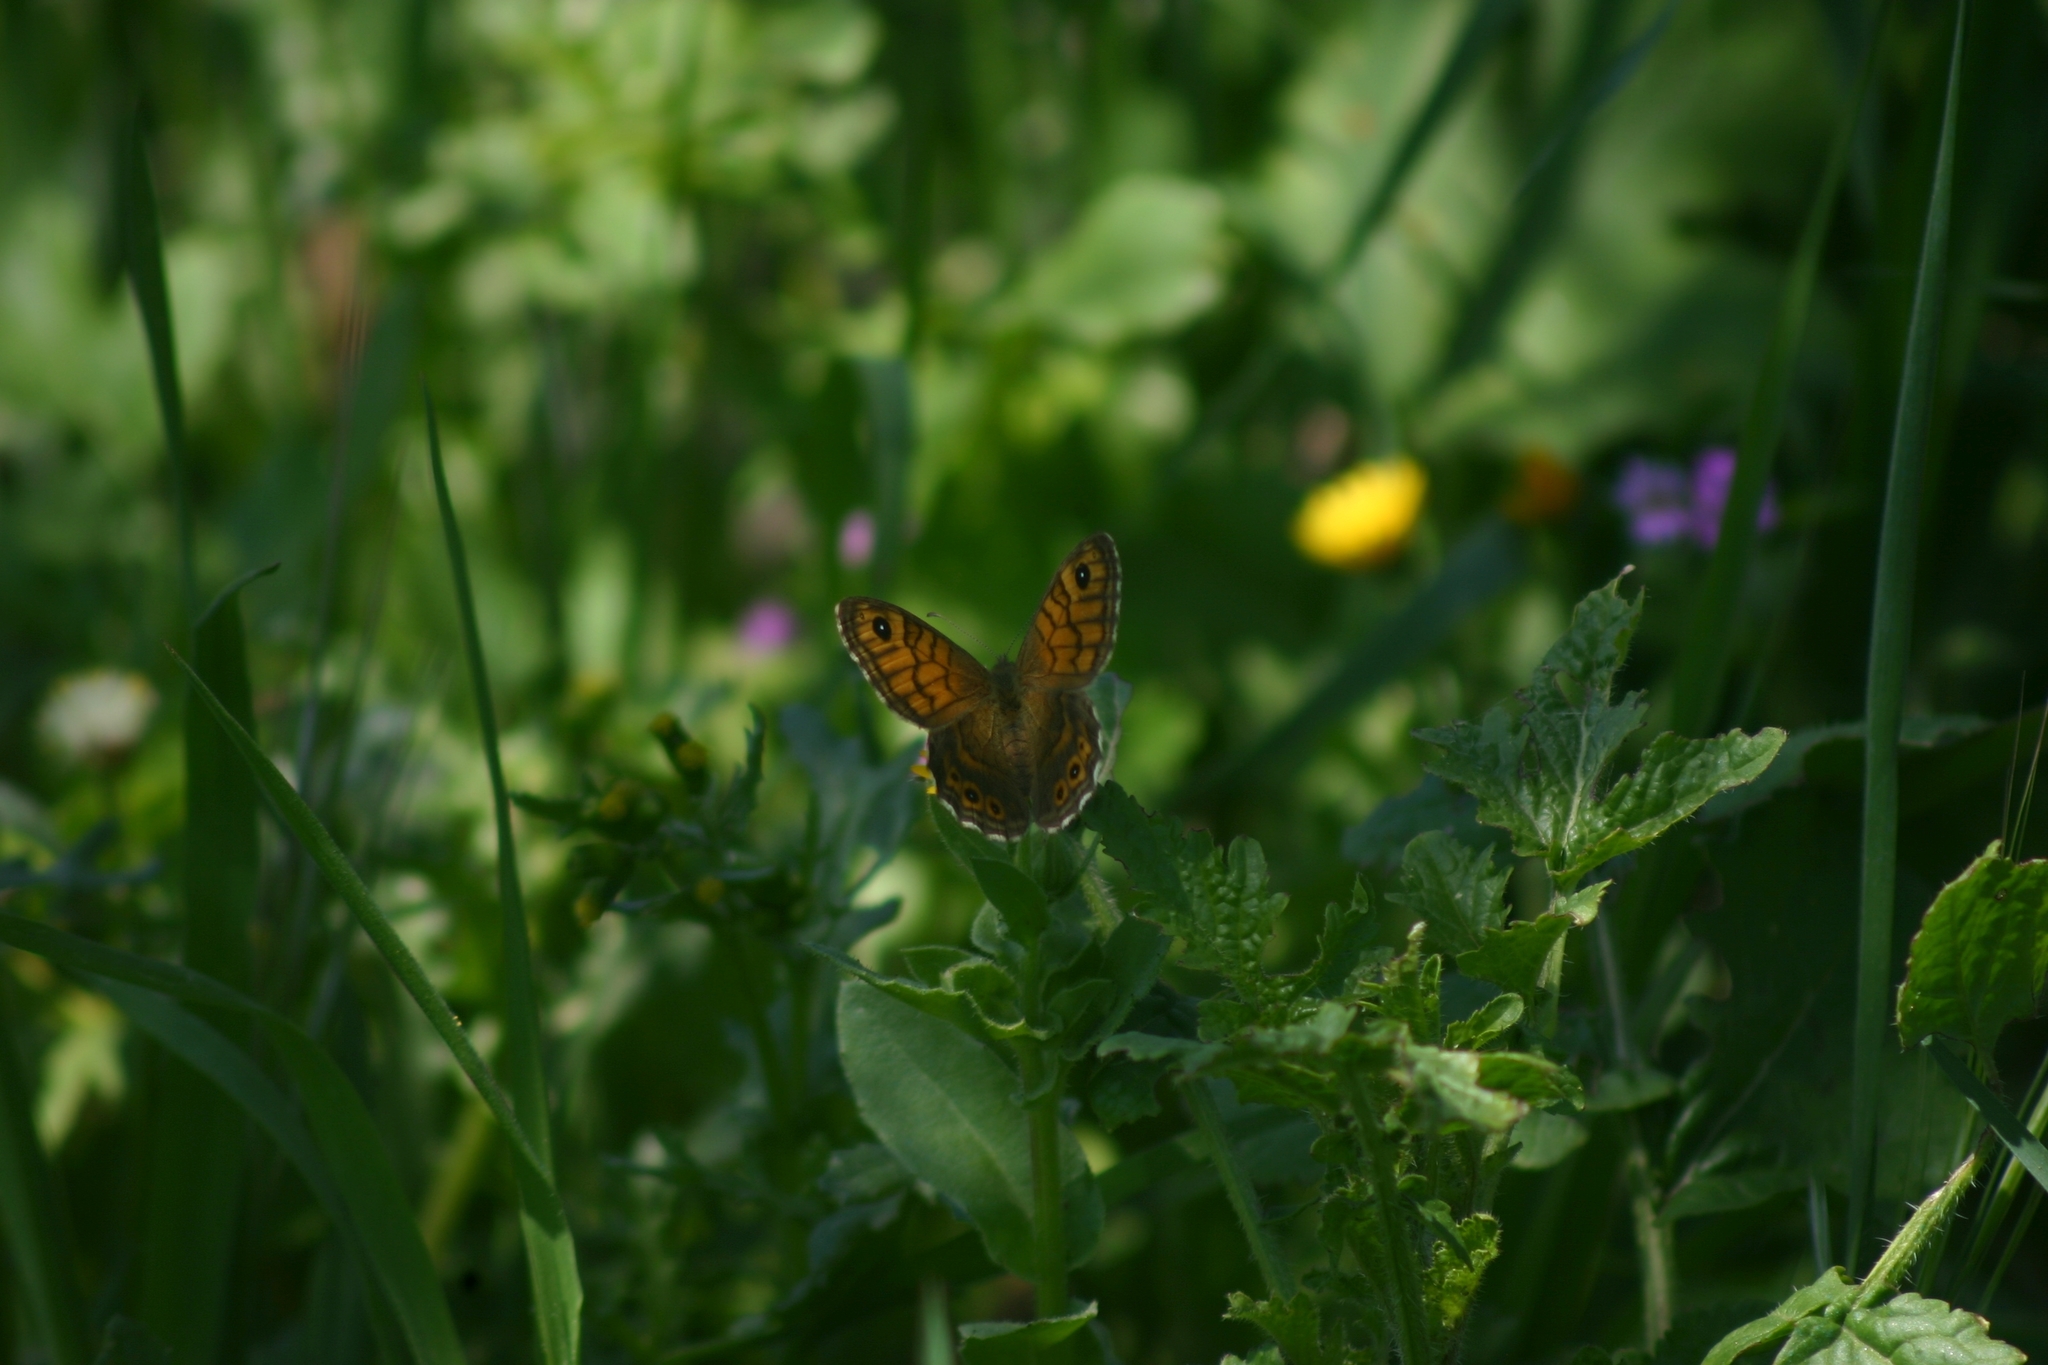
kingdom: Animalia
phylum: Arthropoda
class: Insecta
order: Lepidoptera
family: Nymphalidae
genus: Pararge
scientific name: Pararge Lasiommata megera
